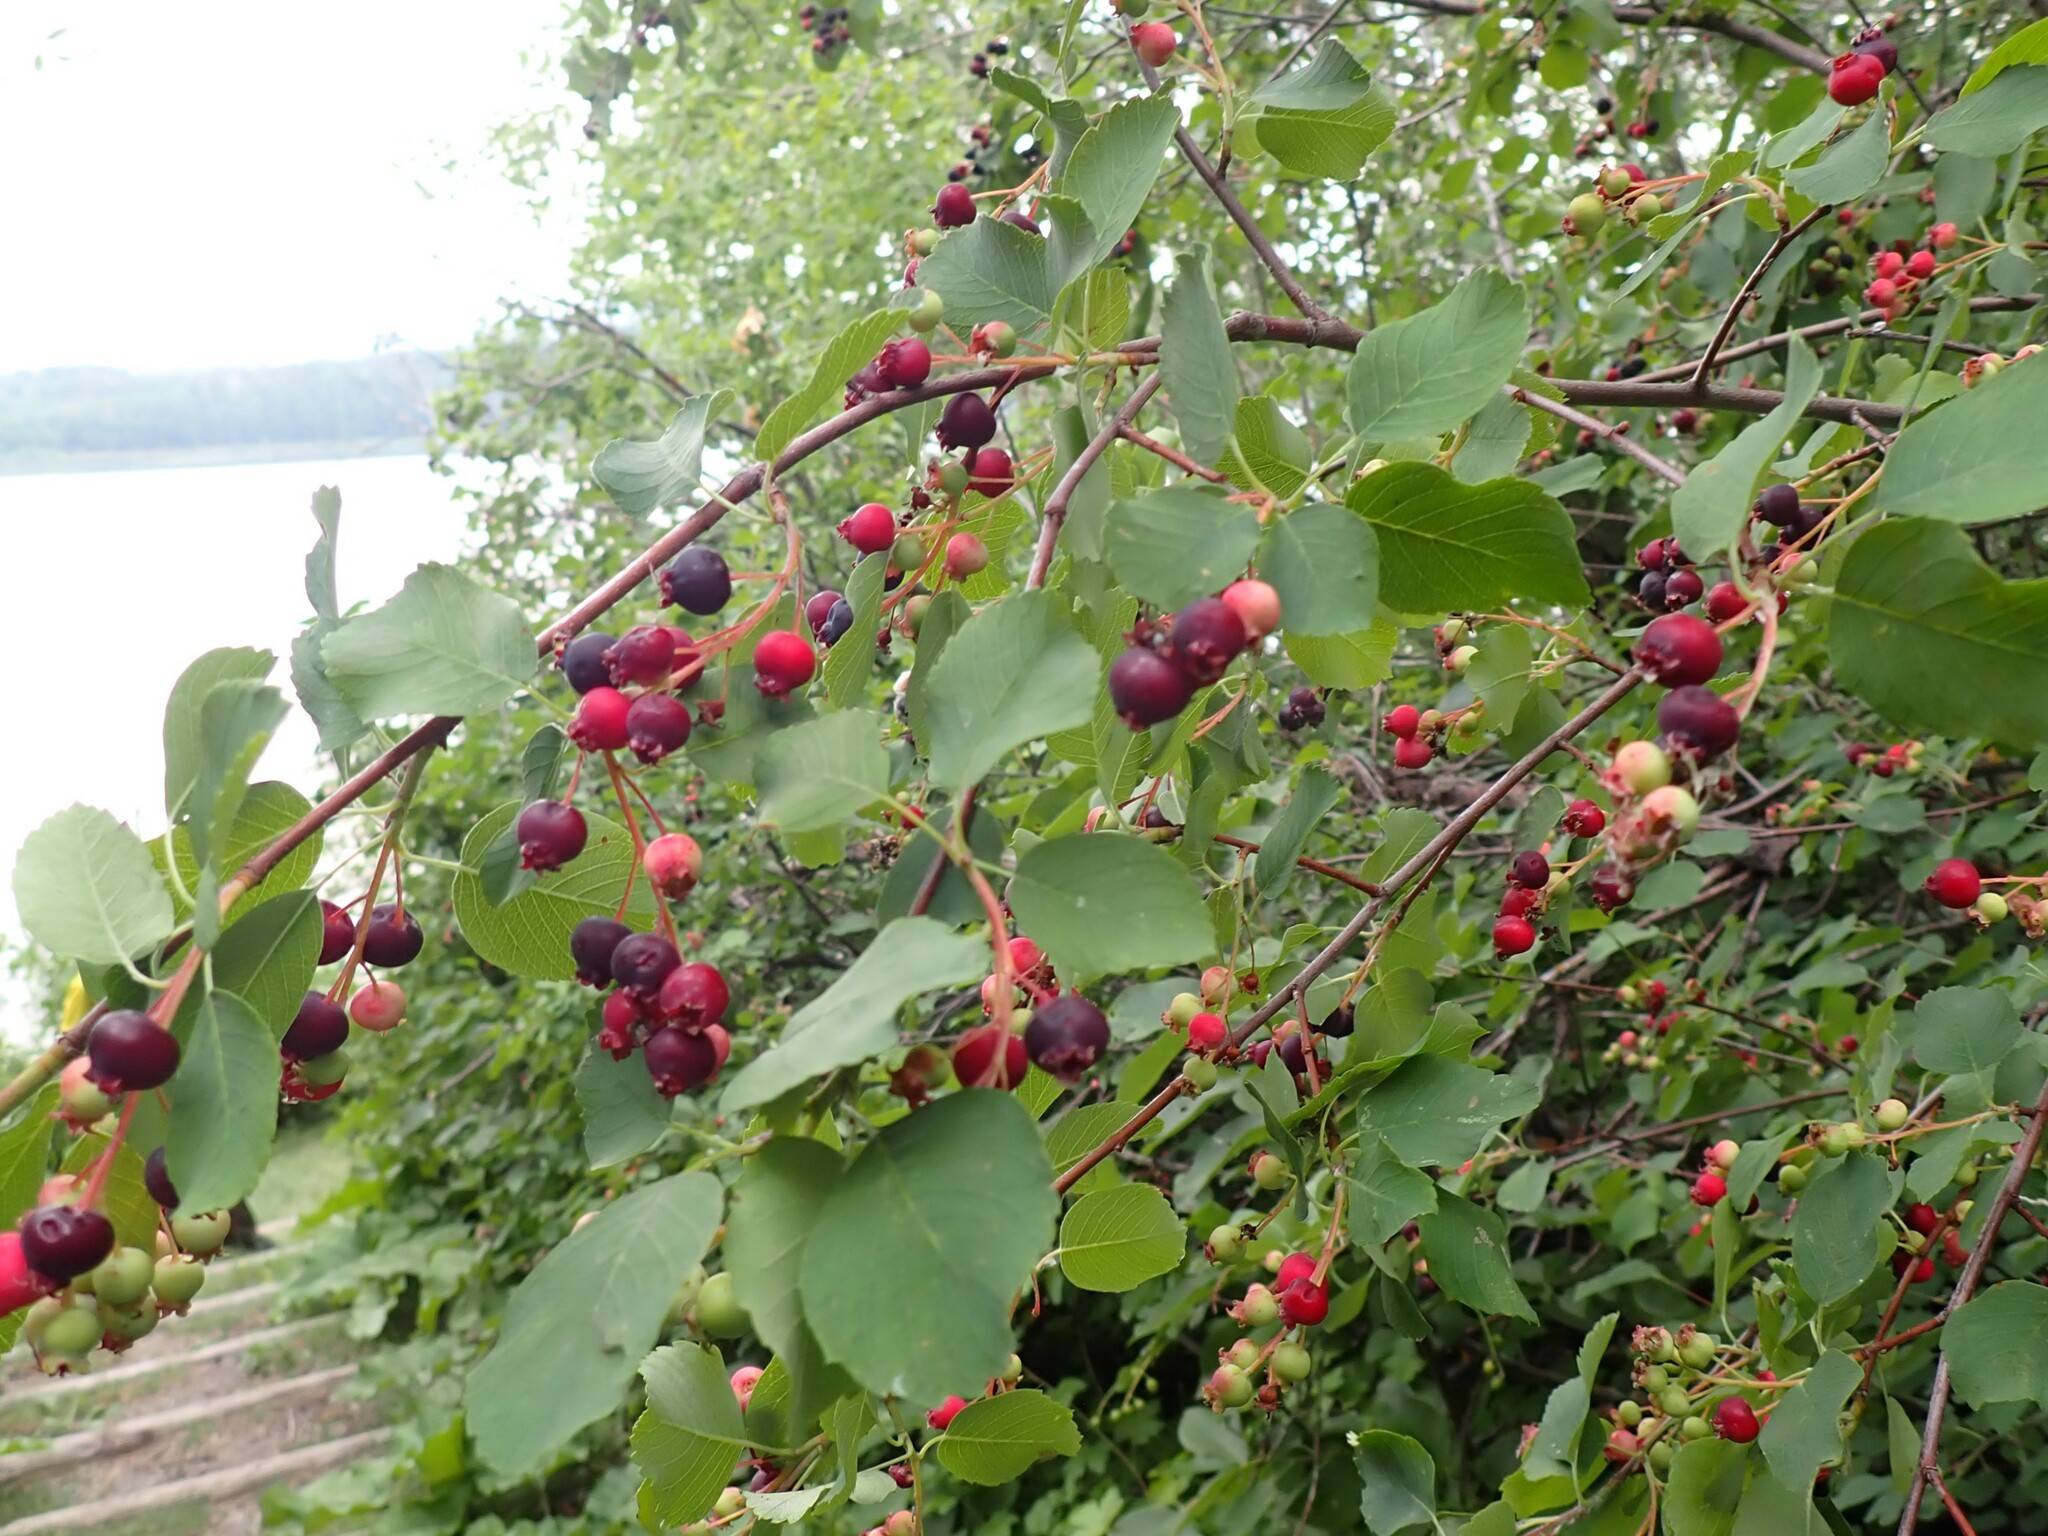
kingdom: Plantae
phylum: Tracheophyta
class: Magnoliopsida
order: Rosales
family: Rosaceae
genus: Amelanchier
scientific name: Amelanchier alnifolia
